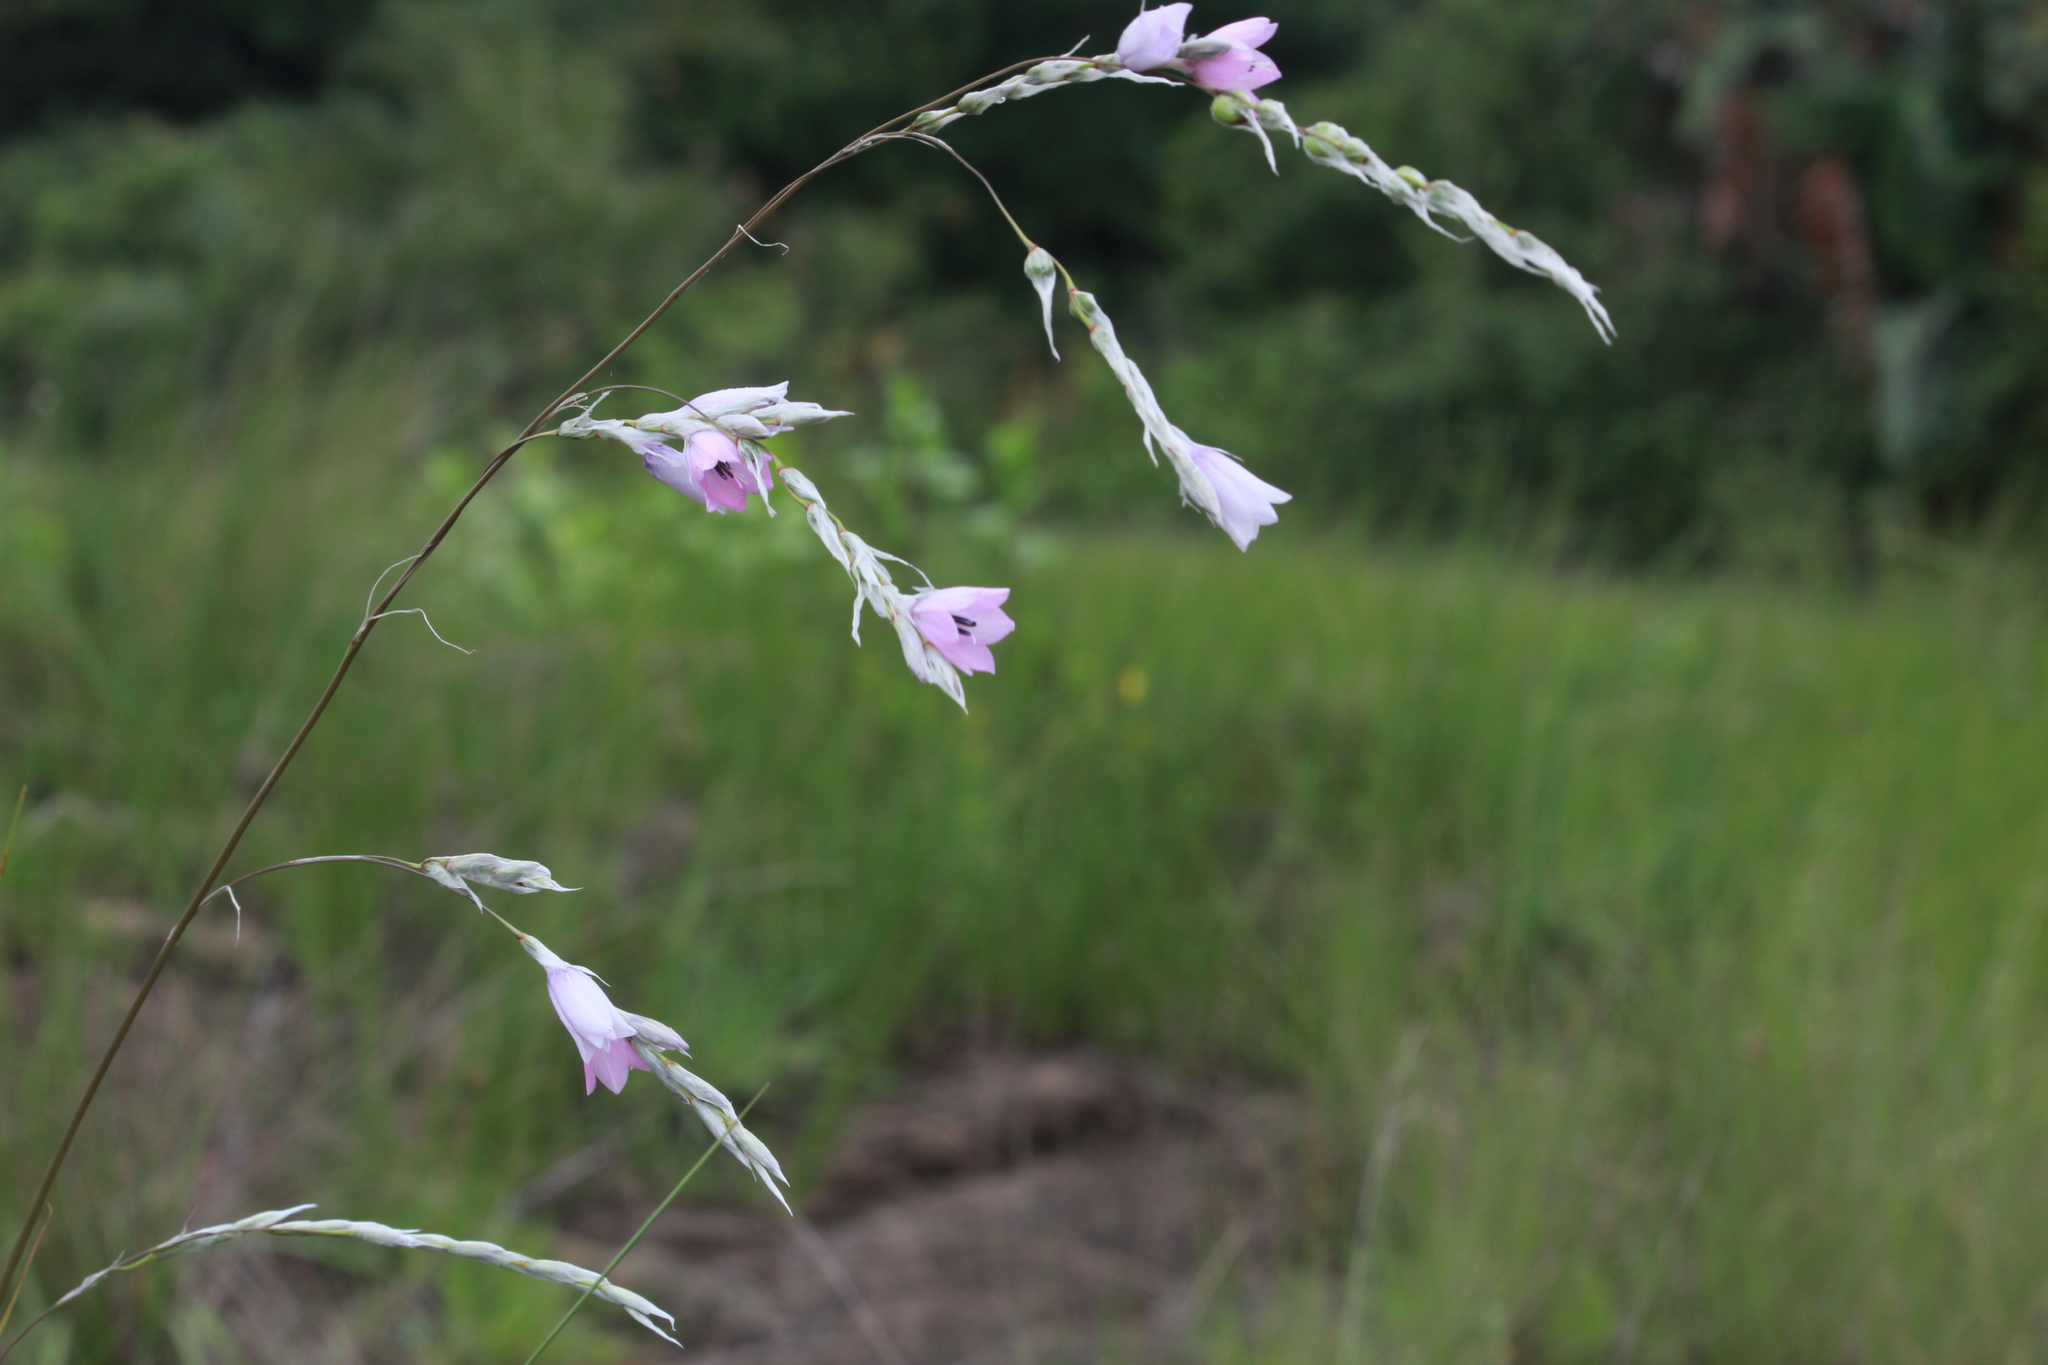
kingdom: Plantae
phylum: Tracheophyta
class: Liliopsida
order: Asparagales
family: Iridaceae
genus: Dierama
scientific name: Dierama igneum
